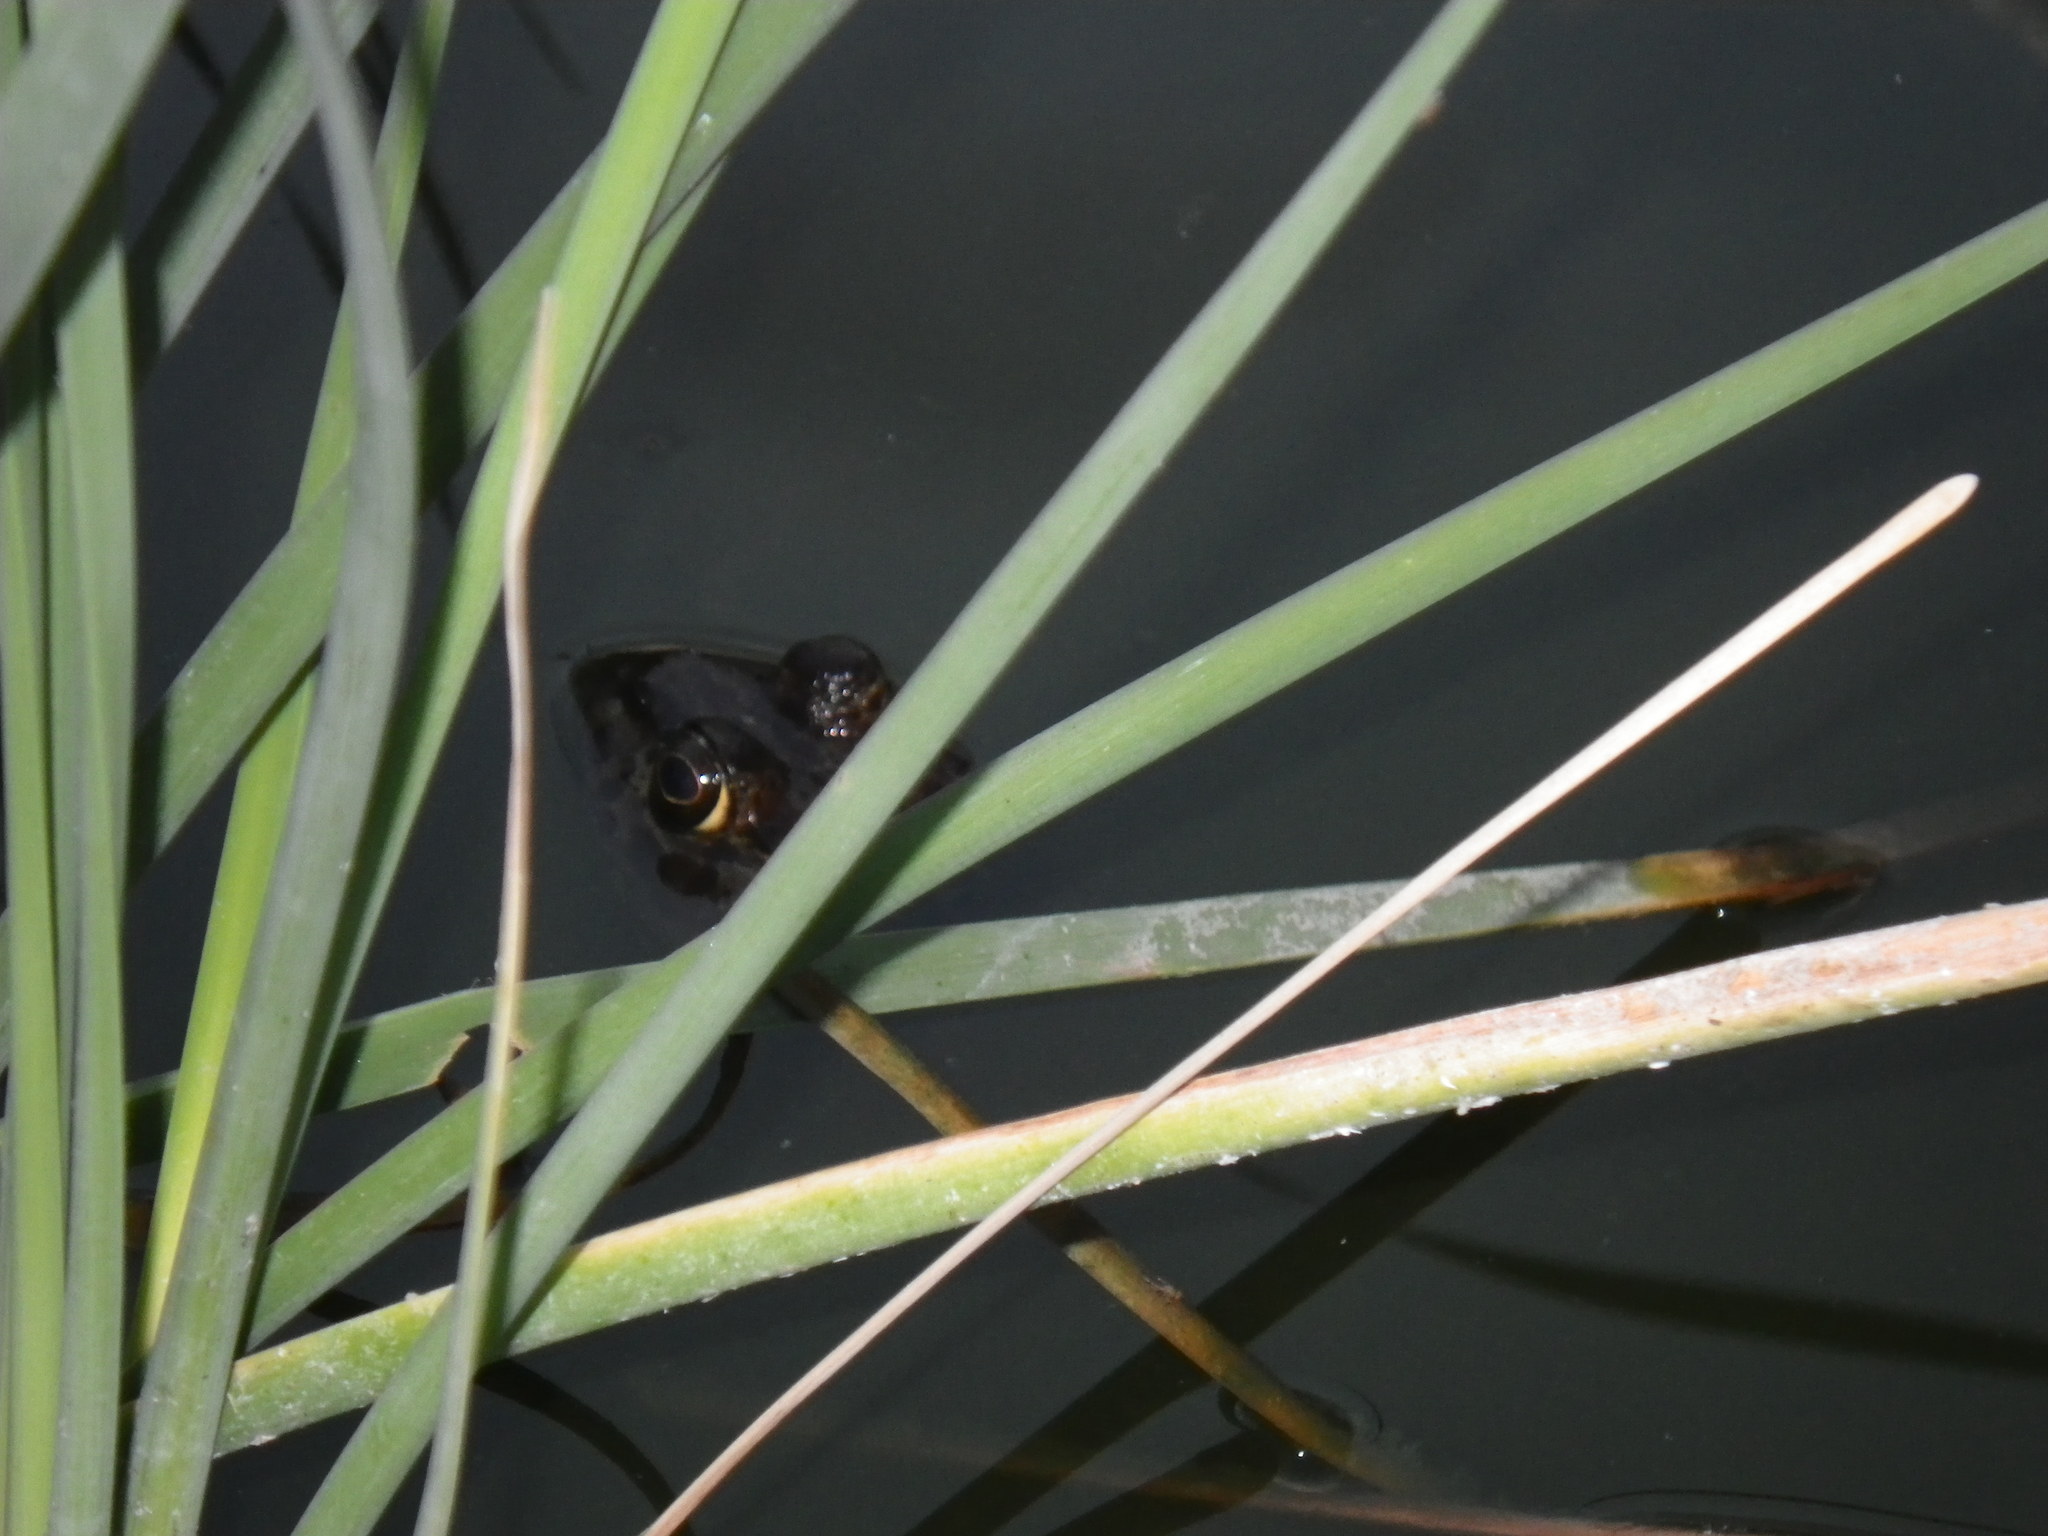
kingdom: Animalia
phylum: Chordata
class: Amphibia
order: Anura
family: Ranidae
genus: Lithobates
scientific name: Lithobates catesbeianus
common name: American bullfrog
